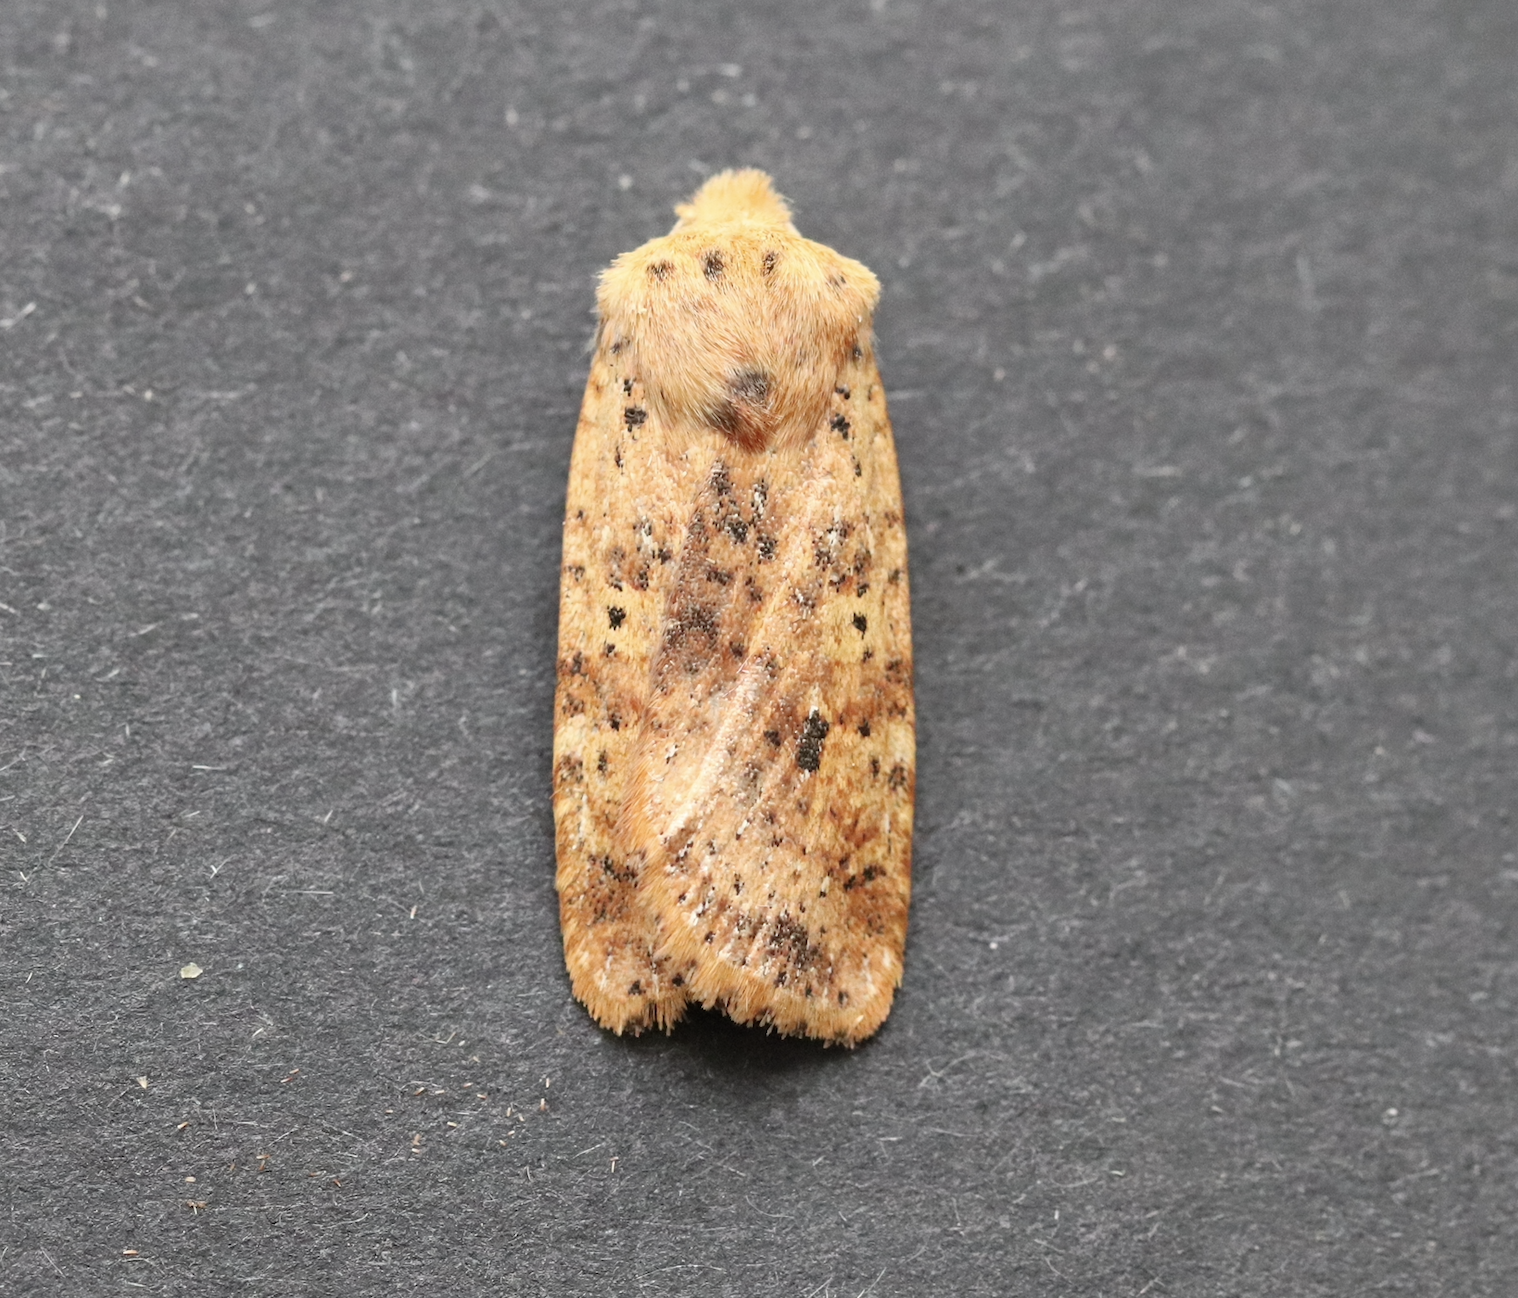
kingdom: Animalia
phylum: Arthropoda
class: Insecta
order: Lepidoptera
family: Noctuidae
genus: Conistra
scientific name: Conistra rubiginea
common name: Dotted chestnut
